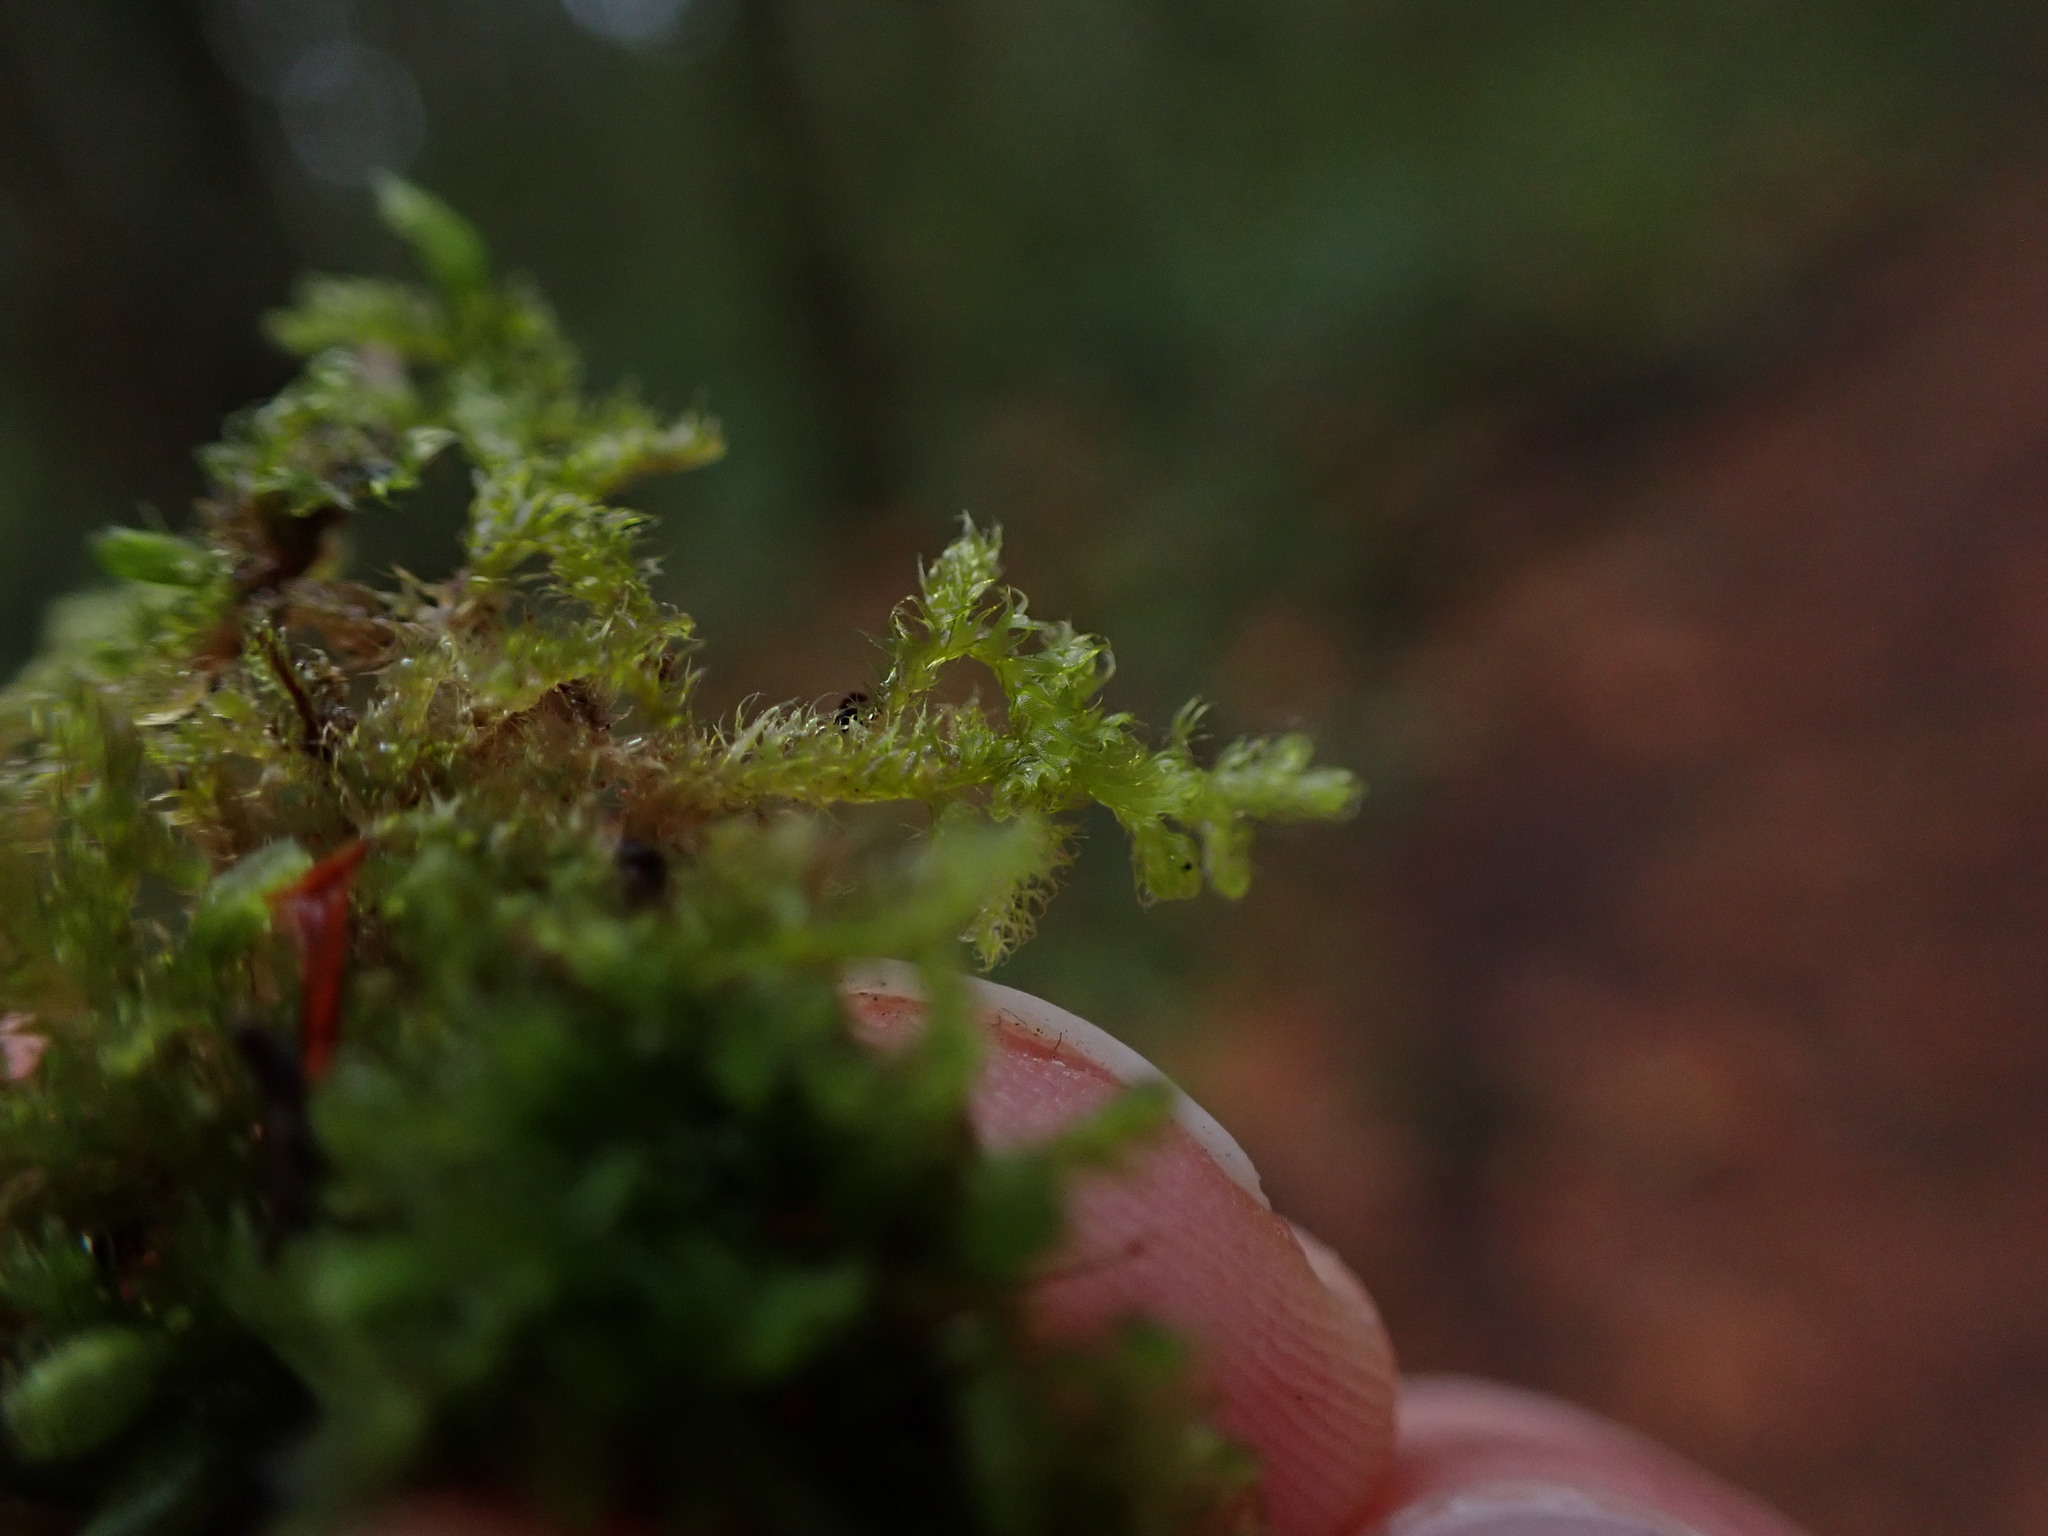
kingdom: Plantae
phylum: Marchantiophyta
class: Jungermanniopsida
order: Ptilidiales
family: Ptilidiaceae
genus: Ptilidium
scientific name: Ptilidium californicum
